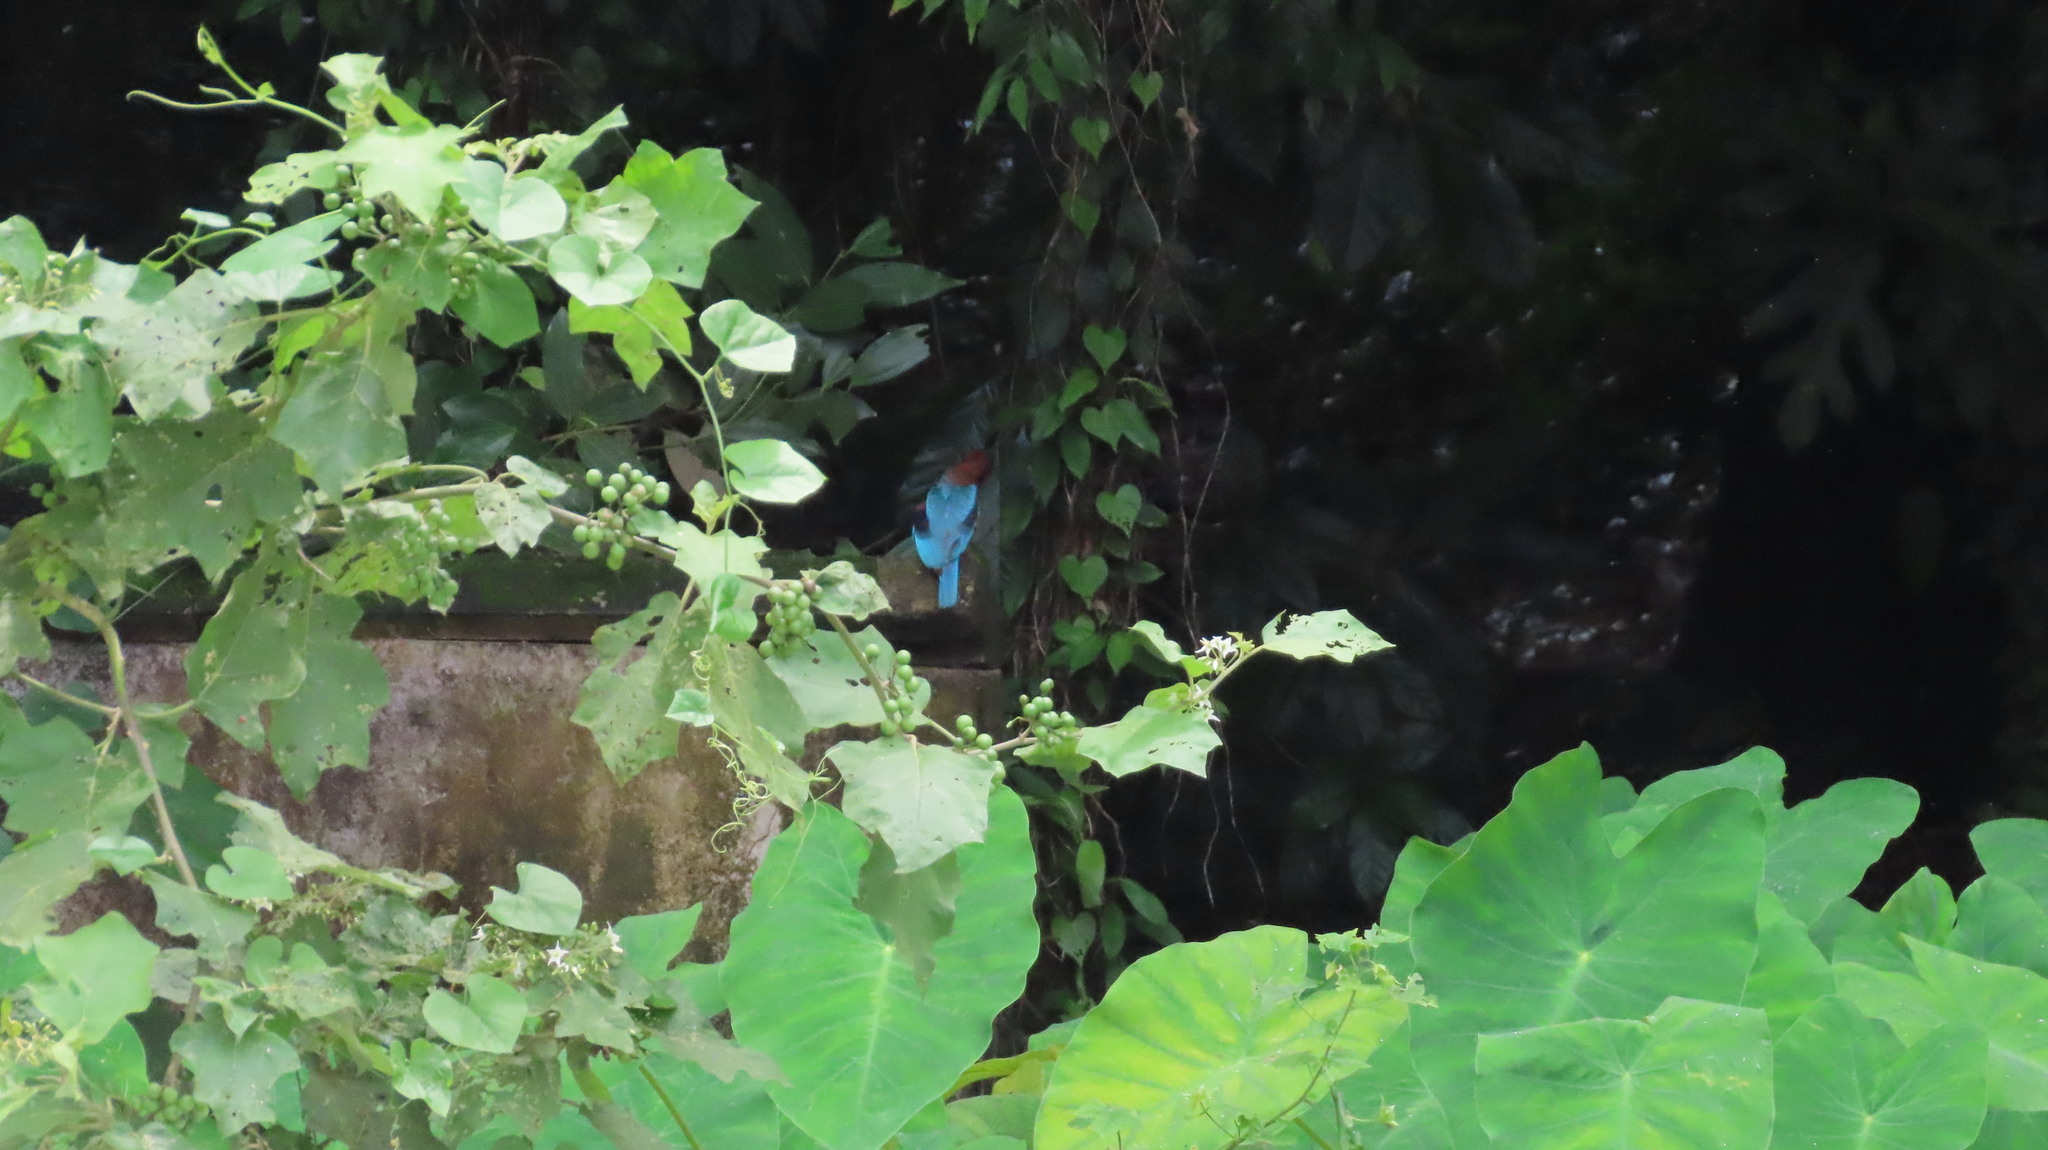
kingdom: Animalia
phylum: Chordata
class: Aves
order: Coraciiformes
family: Alcedinidae
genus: Halcyon
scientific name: Halcyon smyrnensis
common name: White-throated kingfisher
